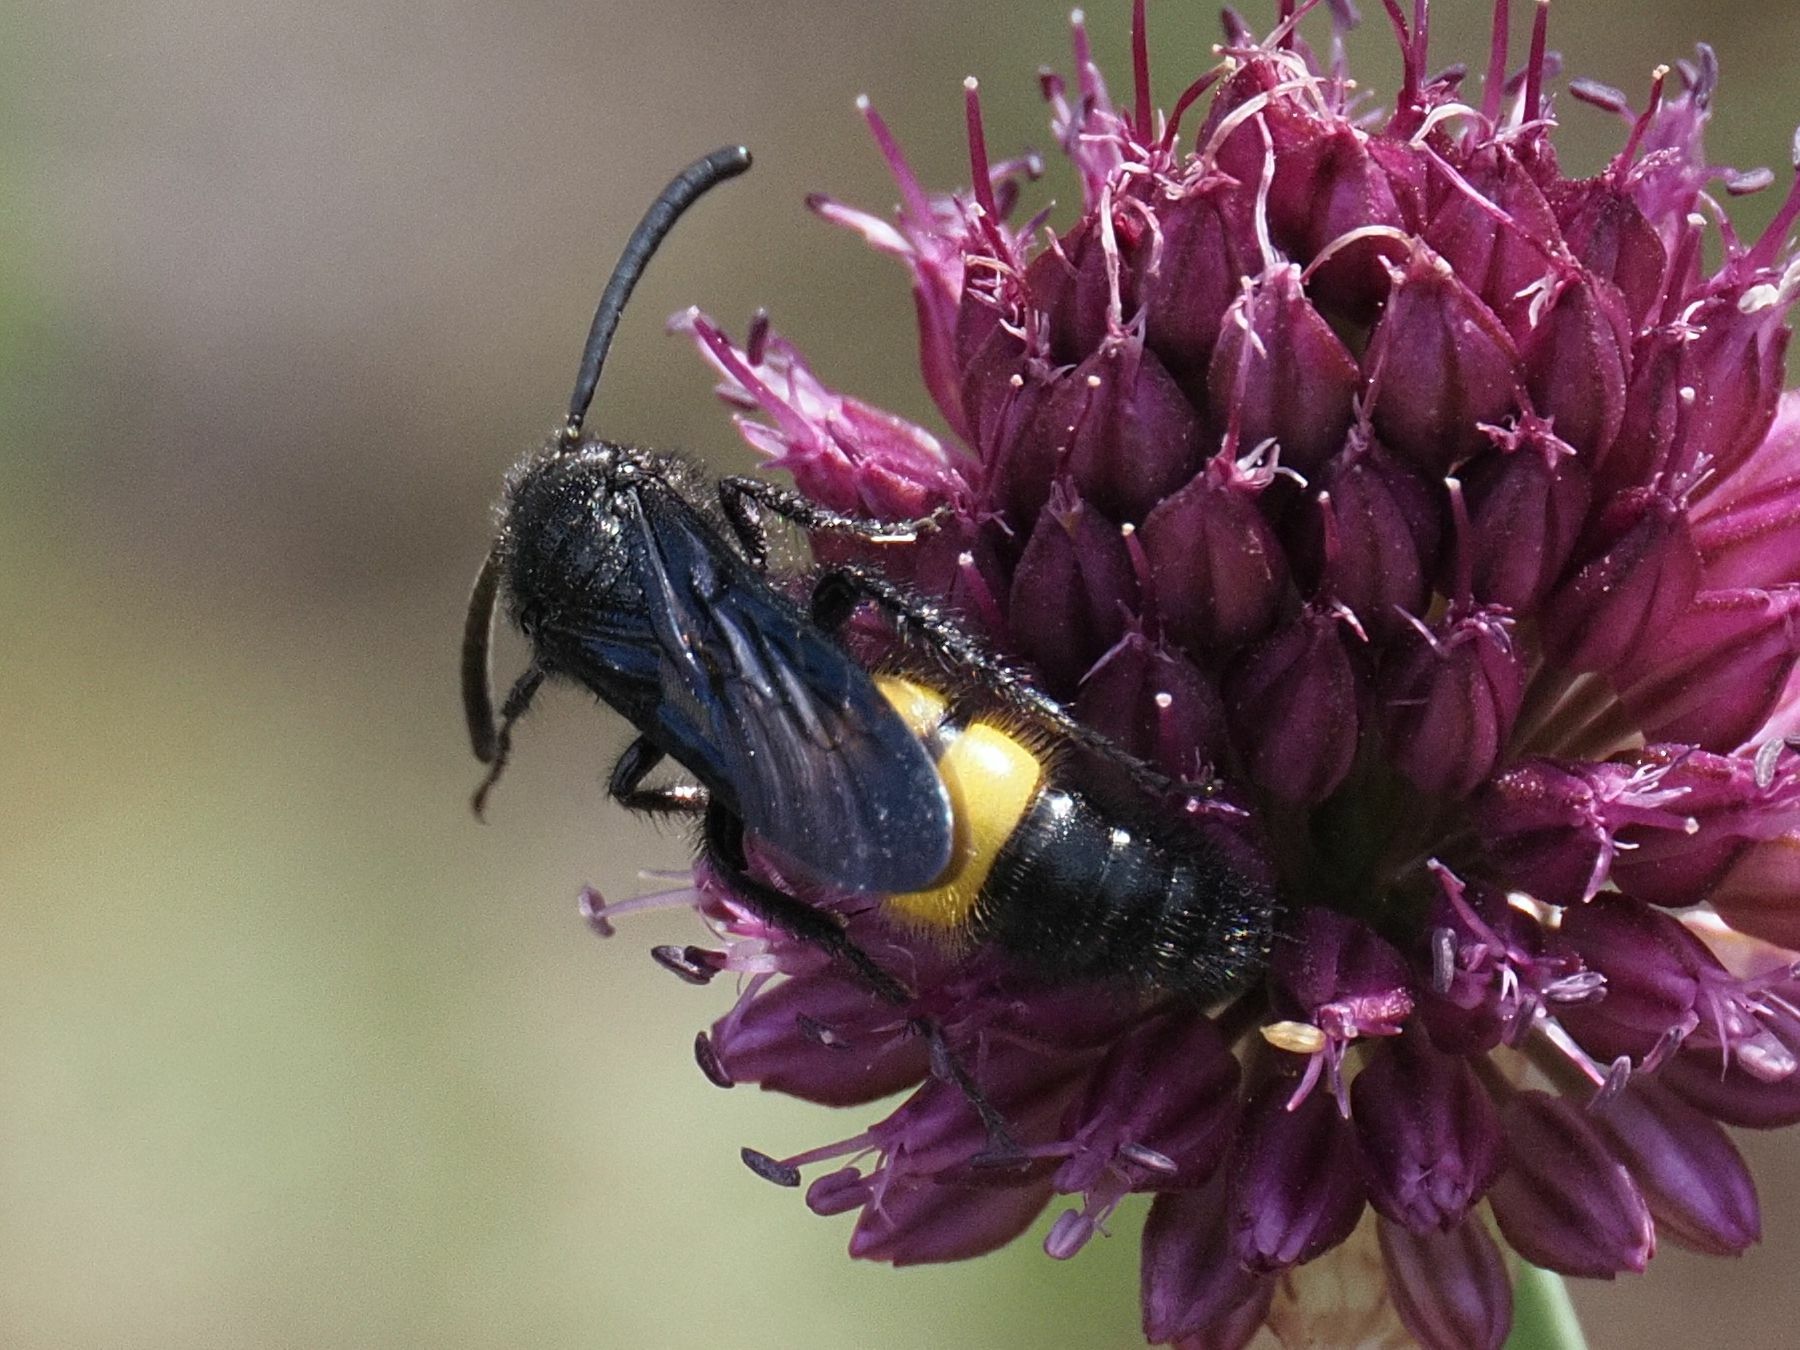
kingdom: Animalia
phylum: Arthropoda
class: Insecta
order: Hymenoptera
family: Scoliidae
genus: Scolia
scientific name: Scolia hirta
